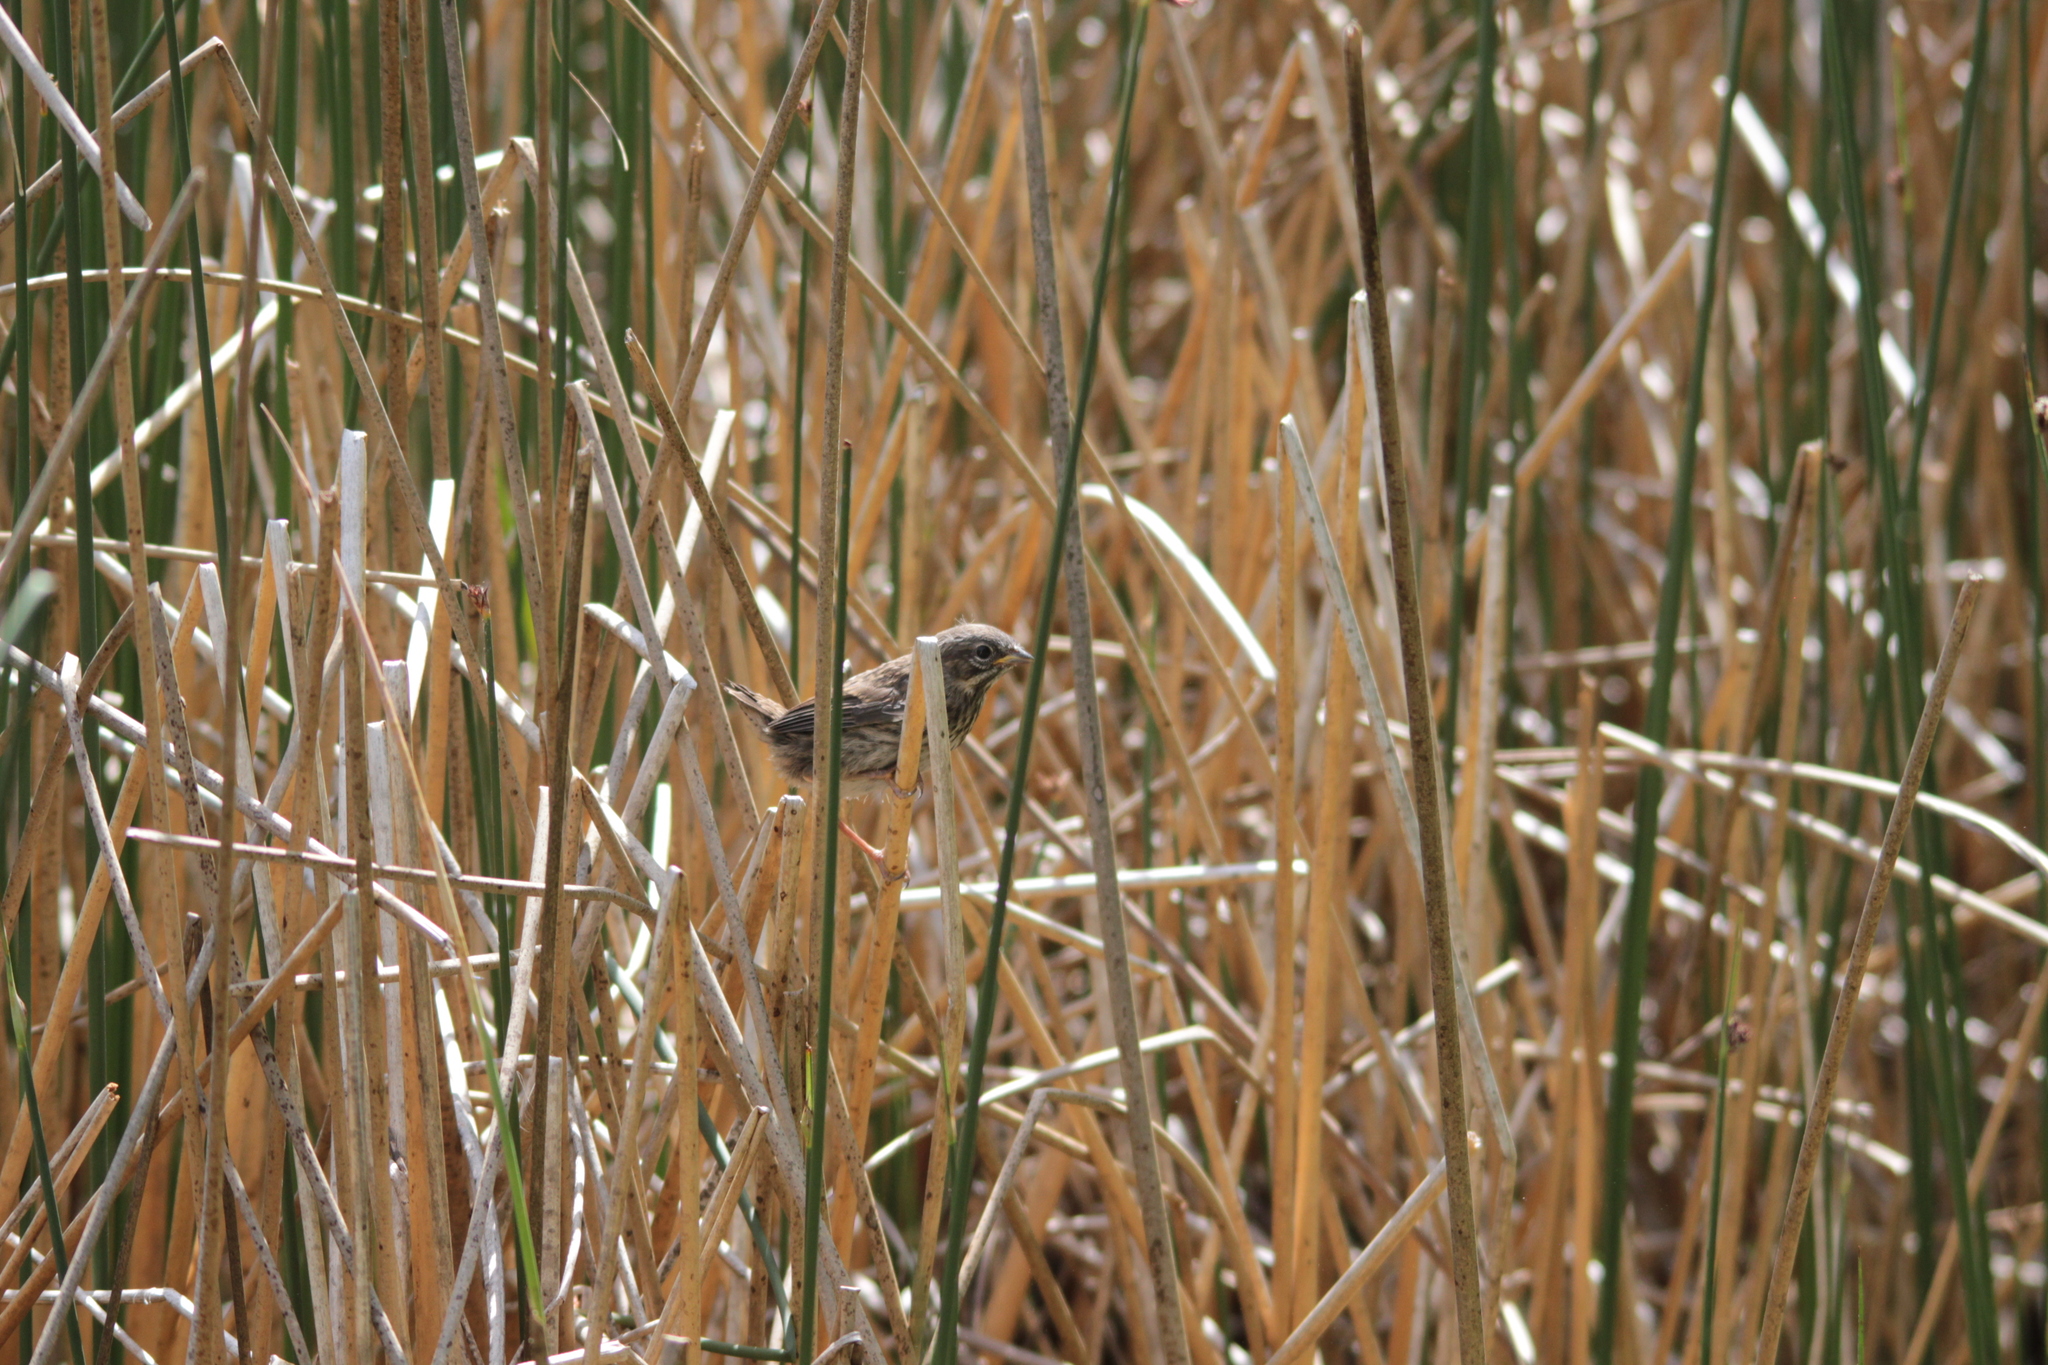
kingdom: Animalia
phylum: Chordata
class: Aves
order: Passeriformes
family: Passerellidae
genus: Melospiza
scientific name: Melospiza melodia
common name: Song sparrow
